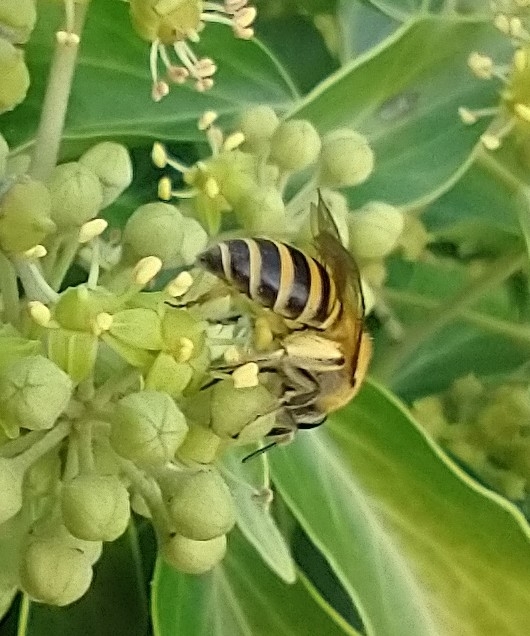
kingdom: Animalia
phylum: Arthropoda
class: Insecta
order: Hymenoptera
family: Colletidae
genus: Colletes
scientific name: Colletes hederae
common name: Ivy bee
